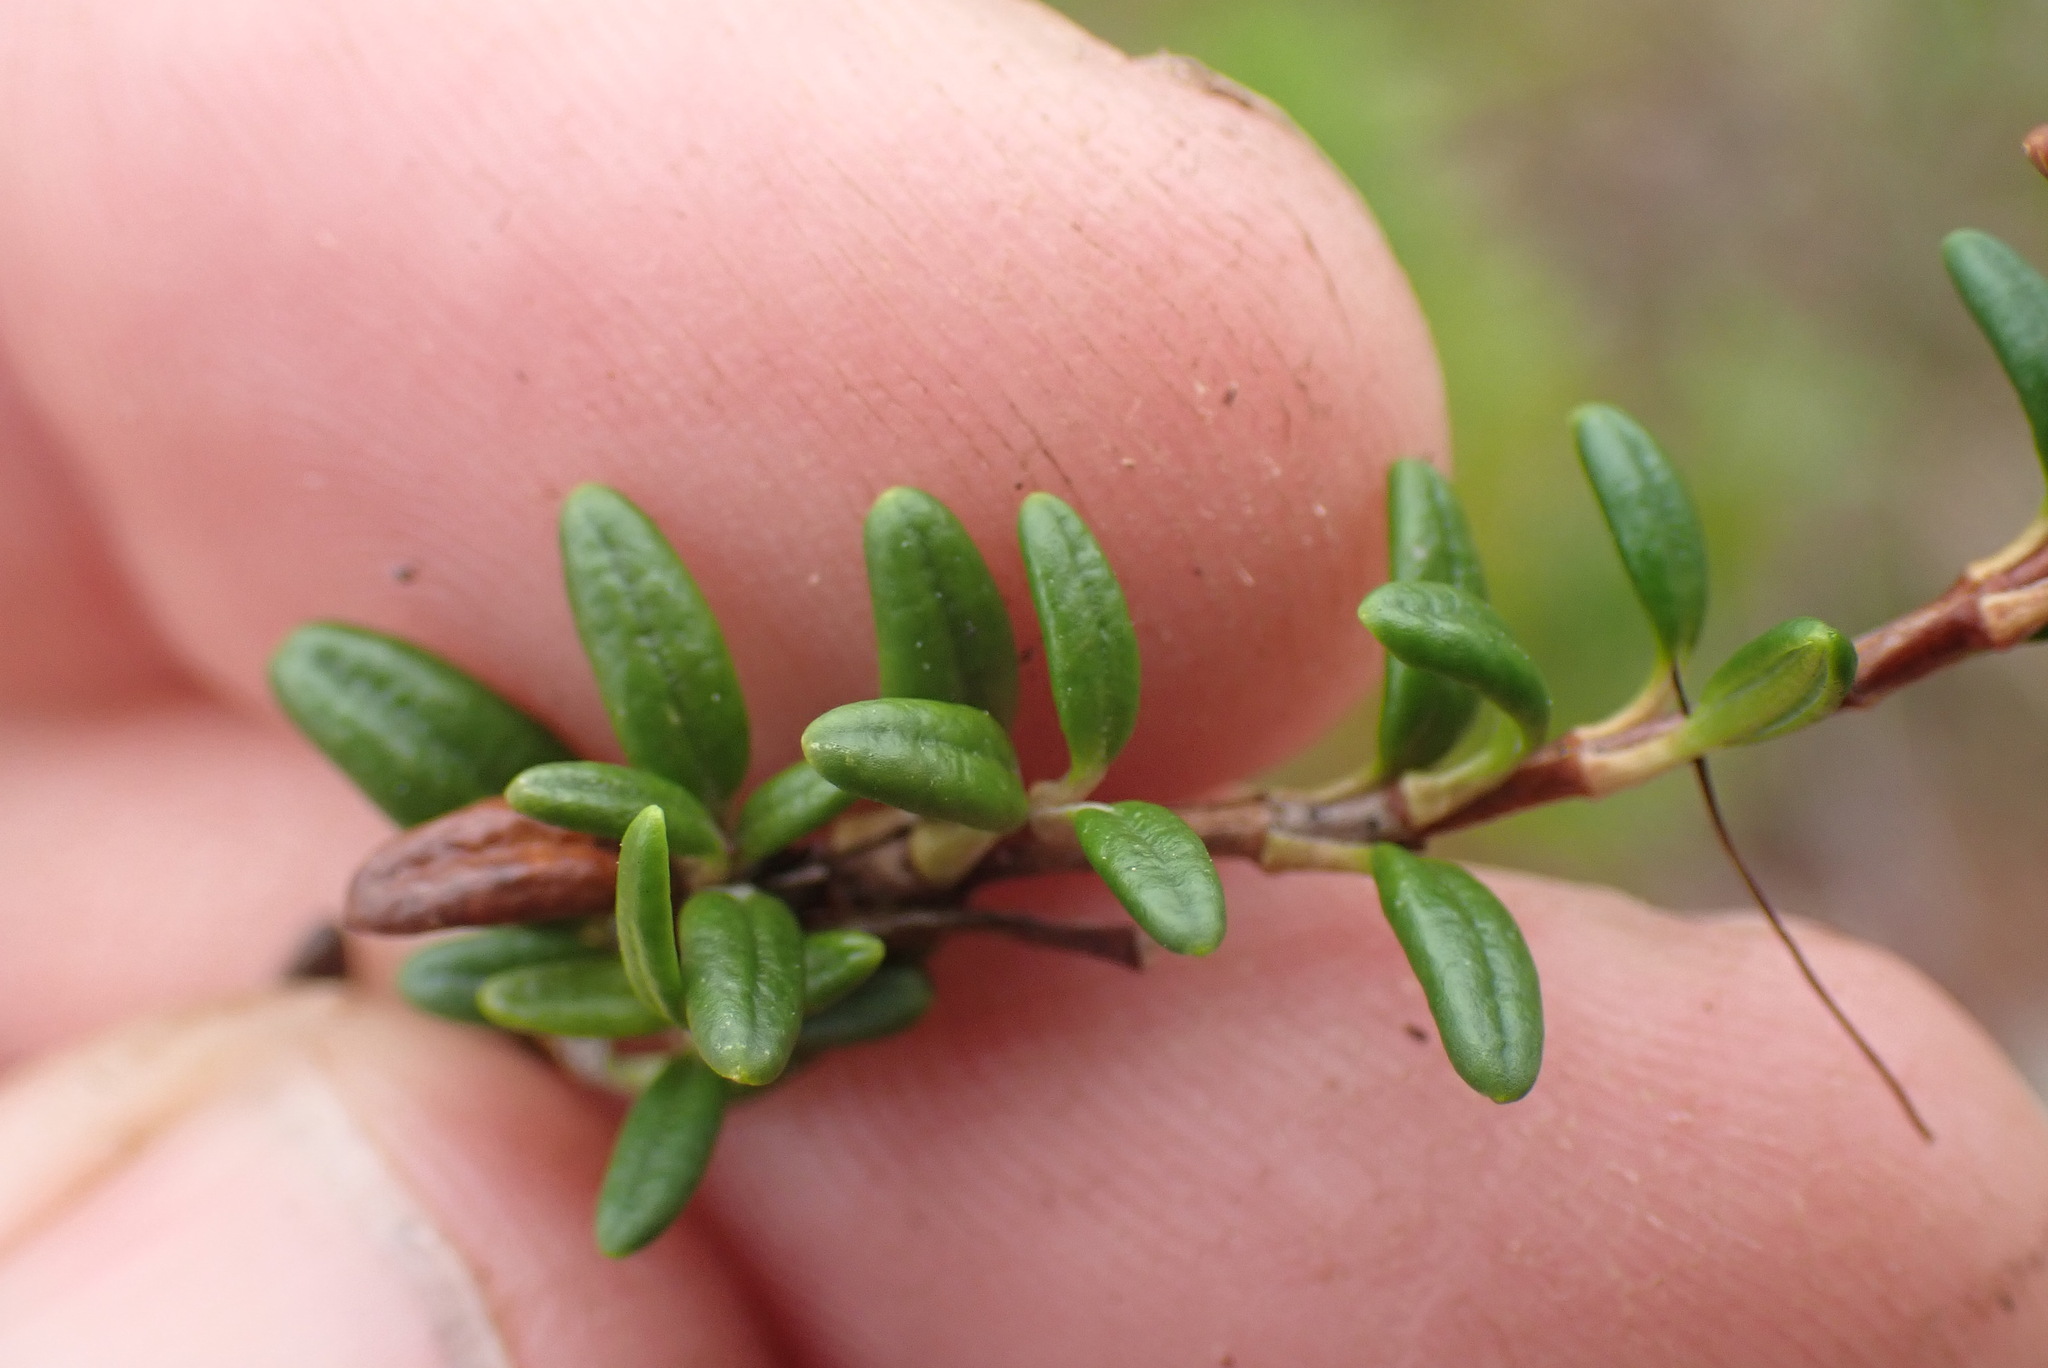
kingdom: Plantae
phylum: Tracheophyta
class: Magnoliopsida
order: Ericales
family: Ericaceae
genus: Kalmia
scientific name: Kalmia procumbens
